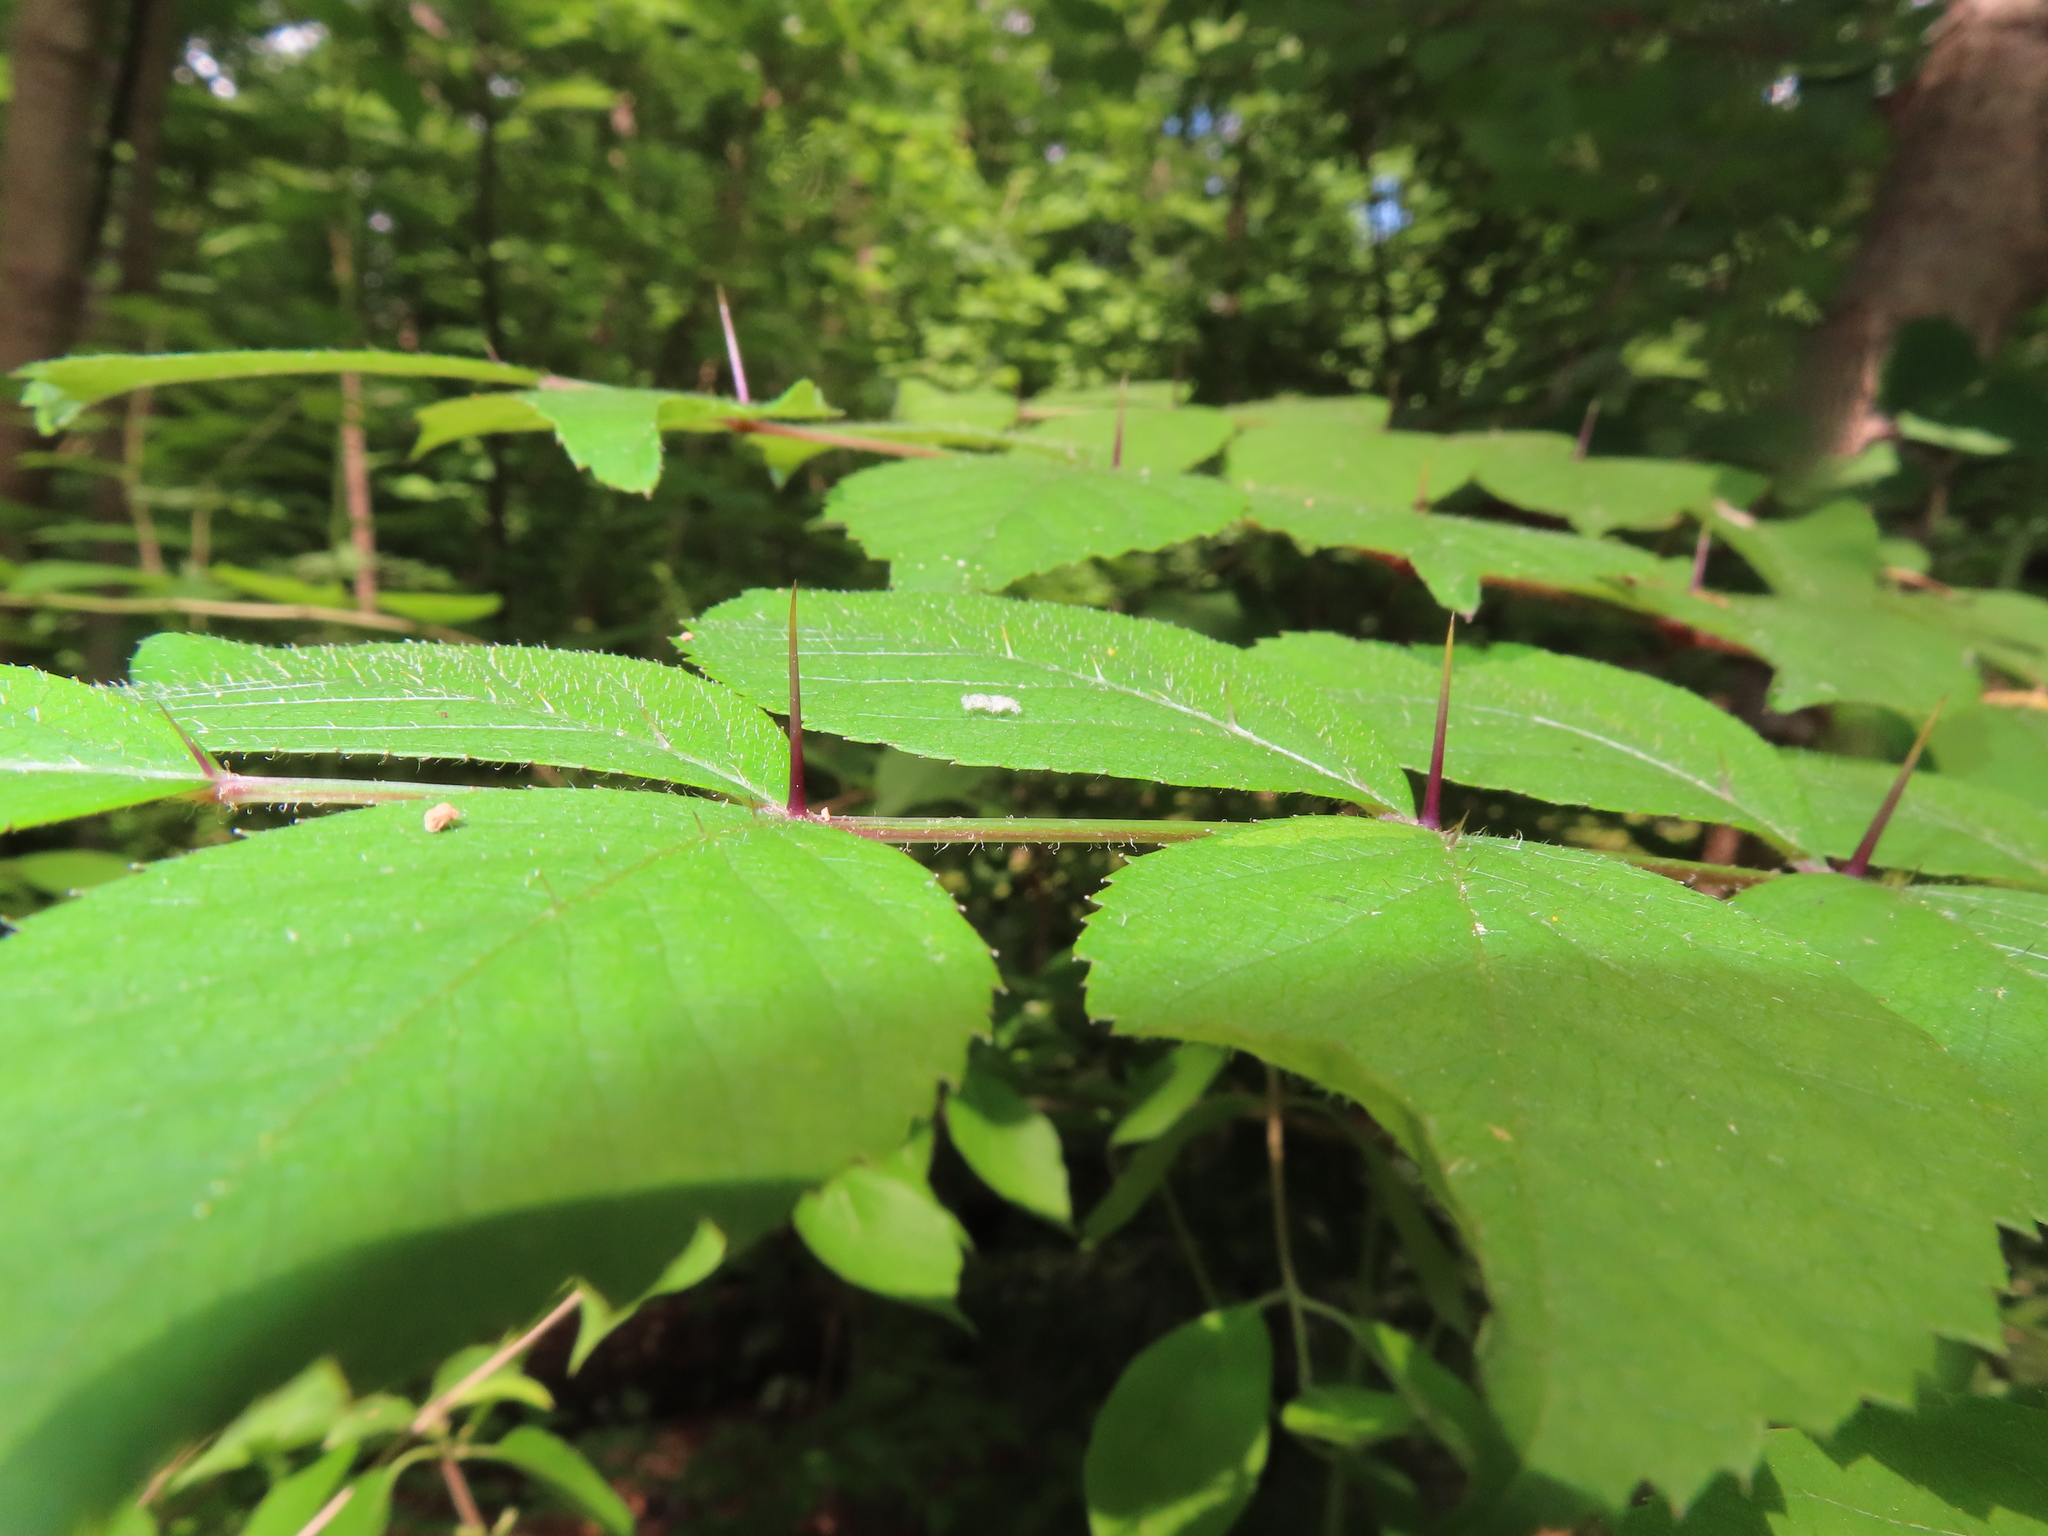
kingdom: Plantae
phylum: Tracheophyta
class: Magnoliopsida
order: Apiales
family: Araliaceae
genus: Aralia
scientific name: Aralia elata
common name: Japanese angelica-tree
